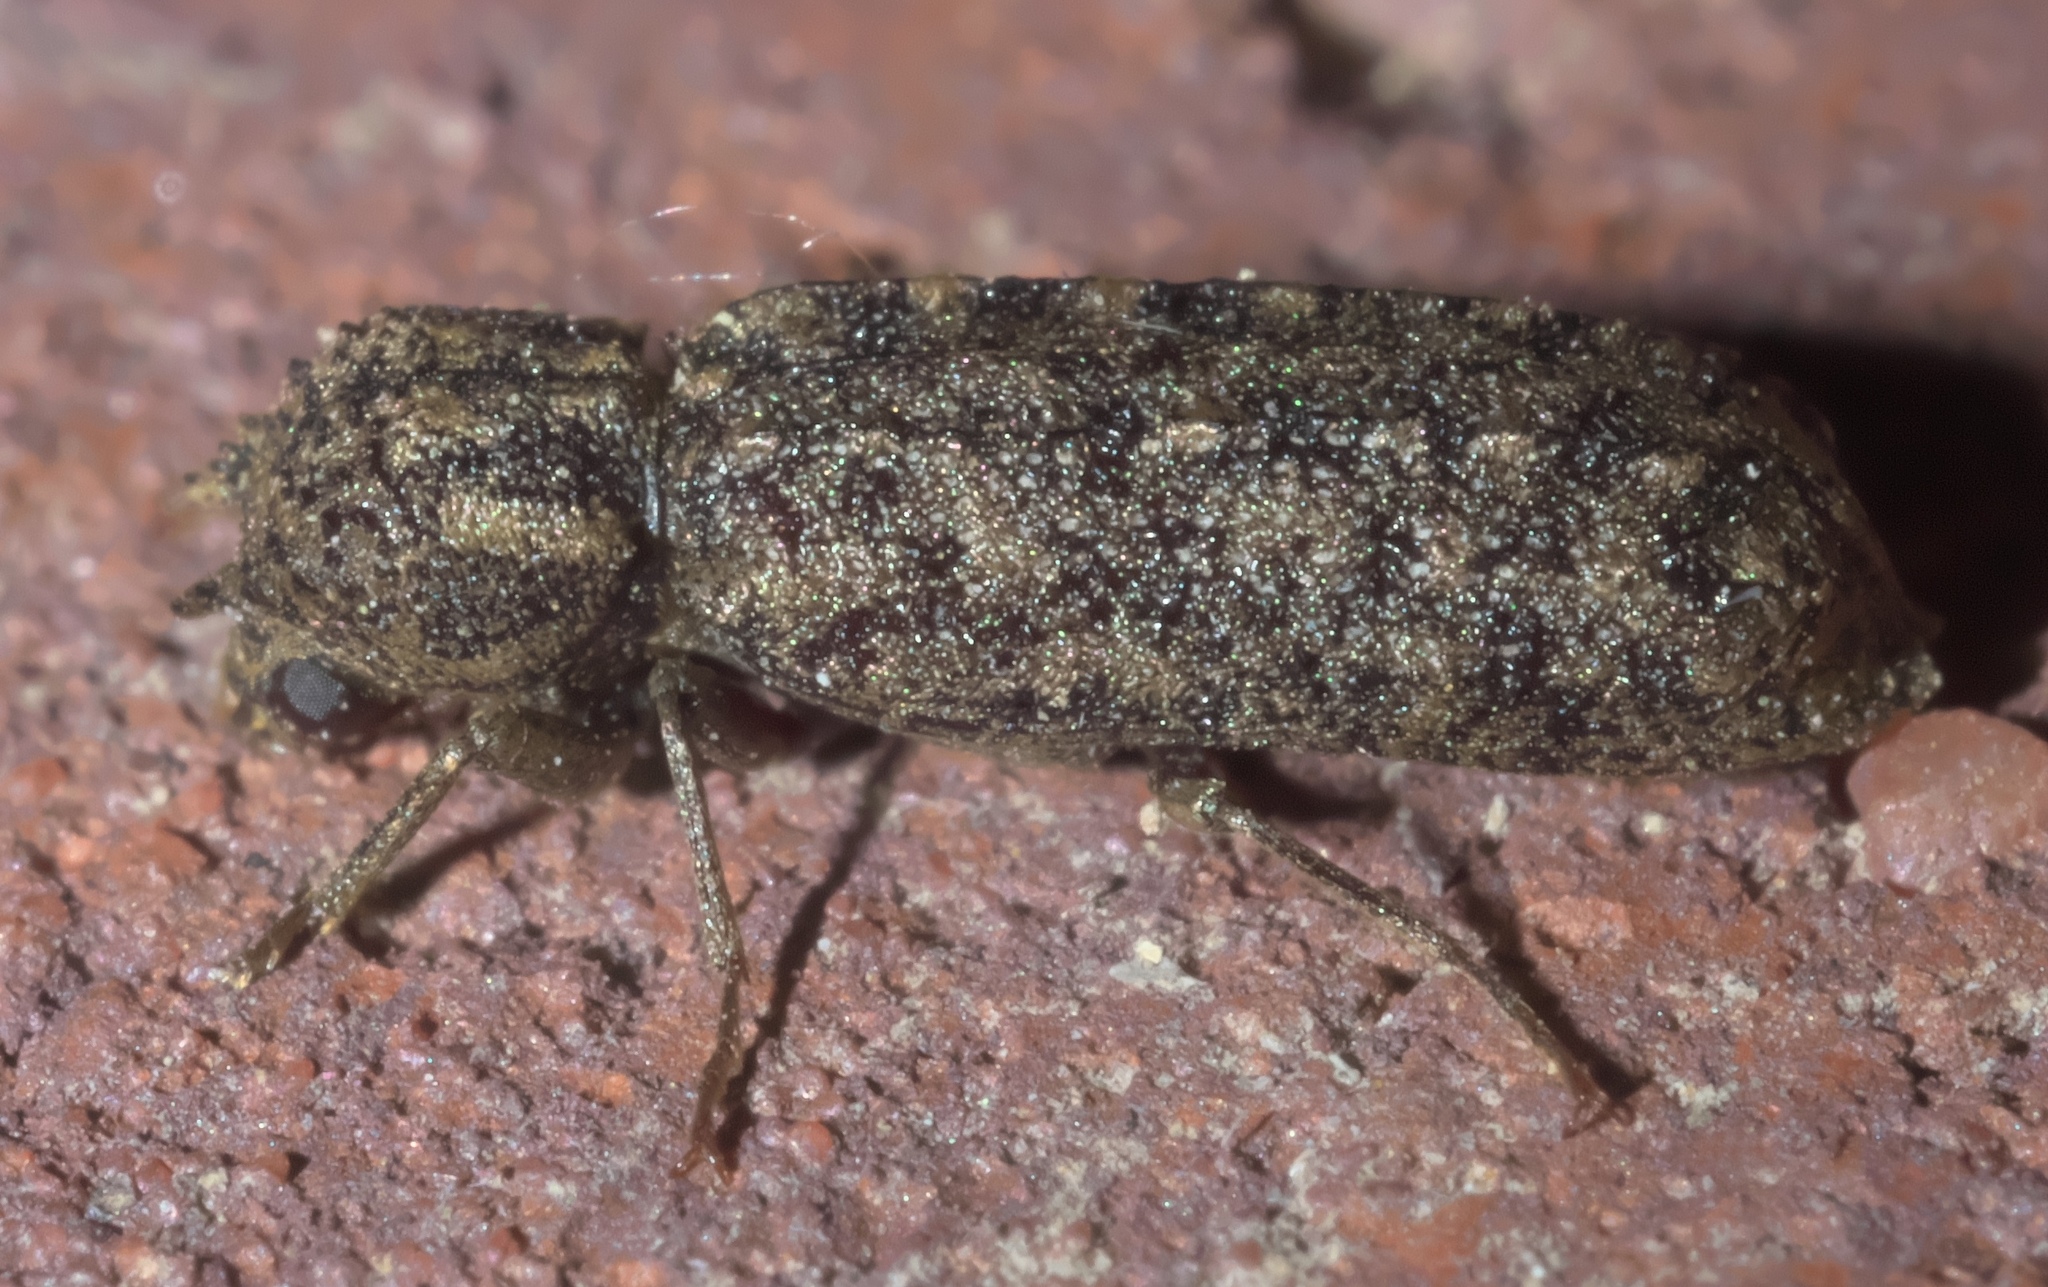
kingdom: Animalia
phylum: Arthropoda
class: Insecta
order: Coleoptera
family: Bostrichidae
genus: Lichenophanes
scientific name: Lichenophanes bicornis
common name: Two-horned powder-post beetle
